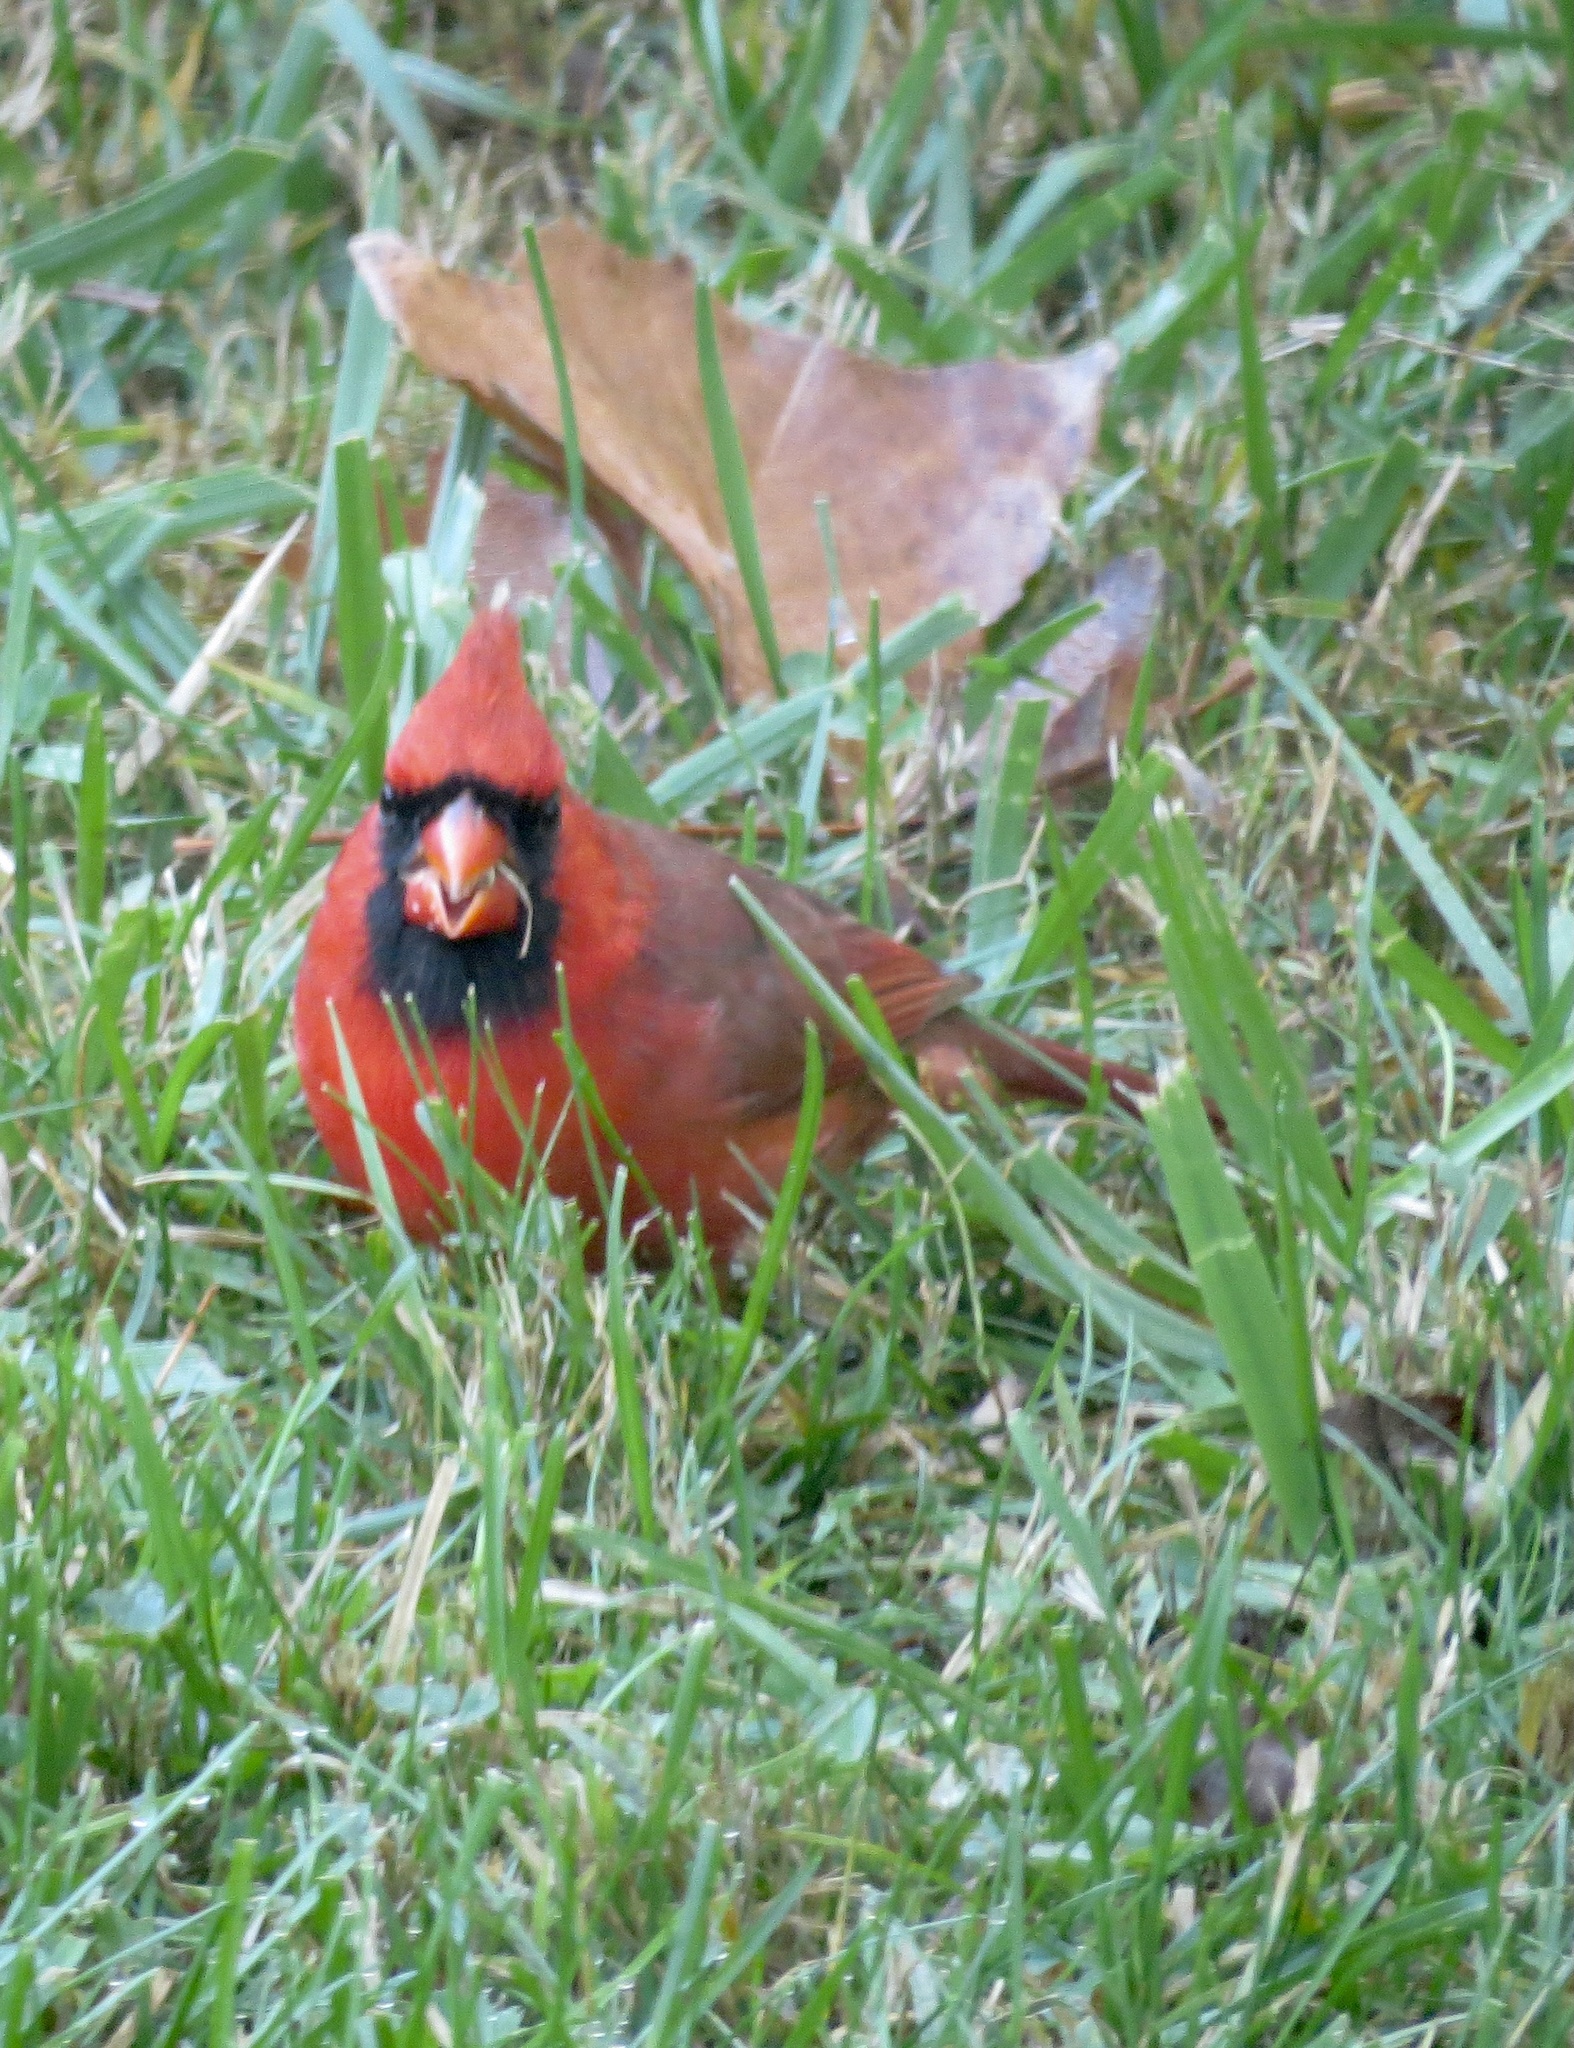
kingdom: Animalia
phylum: Chordata
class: Aves
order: Passeriformes
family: Cardinalidae
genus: Cardinalis
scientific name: Cardinalis cardinalis
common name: Northern cardinal
